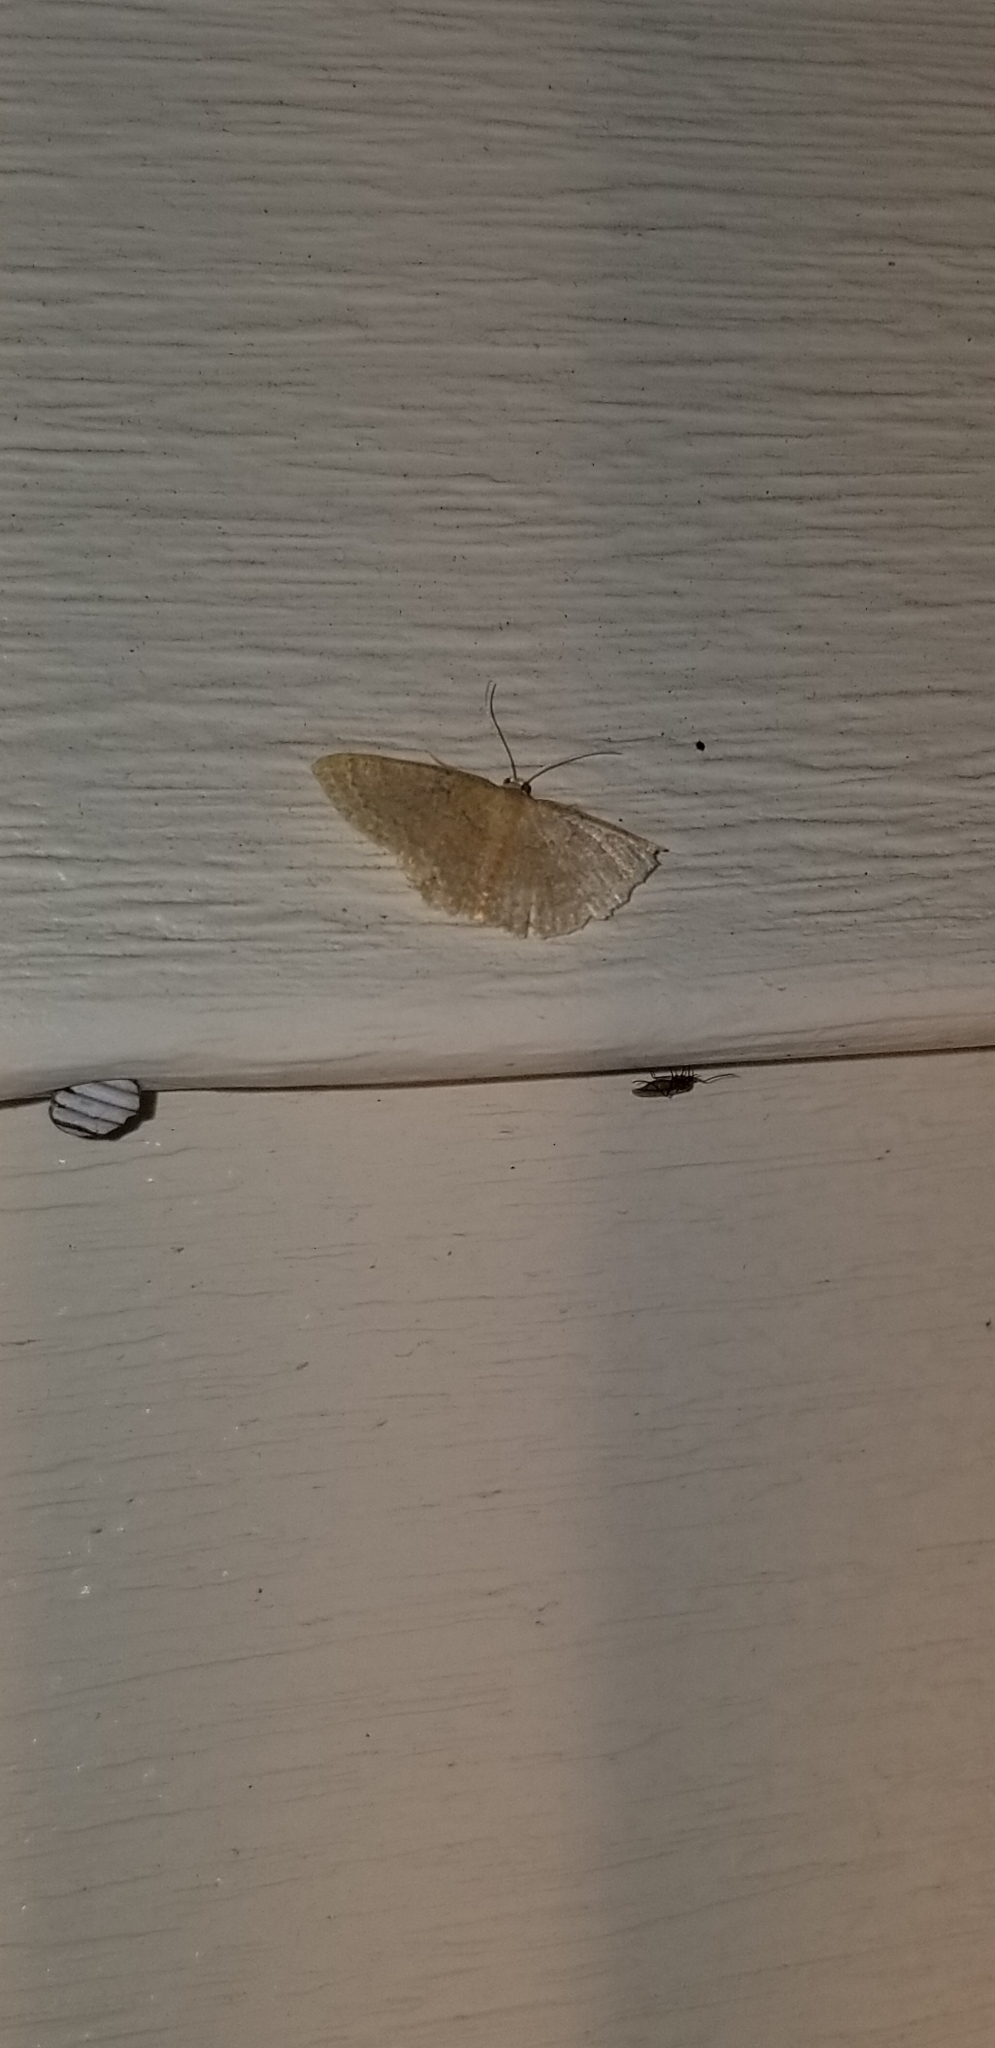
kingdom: Animalia
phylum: Arthropoda
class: Insecta
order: Lepidoptera
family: Geometridae
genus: Pleuroprucha
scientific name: Pleuroprucha insulsaria
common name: Common tan wave
